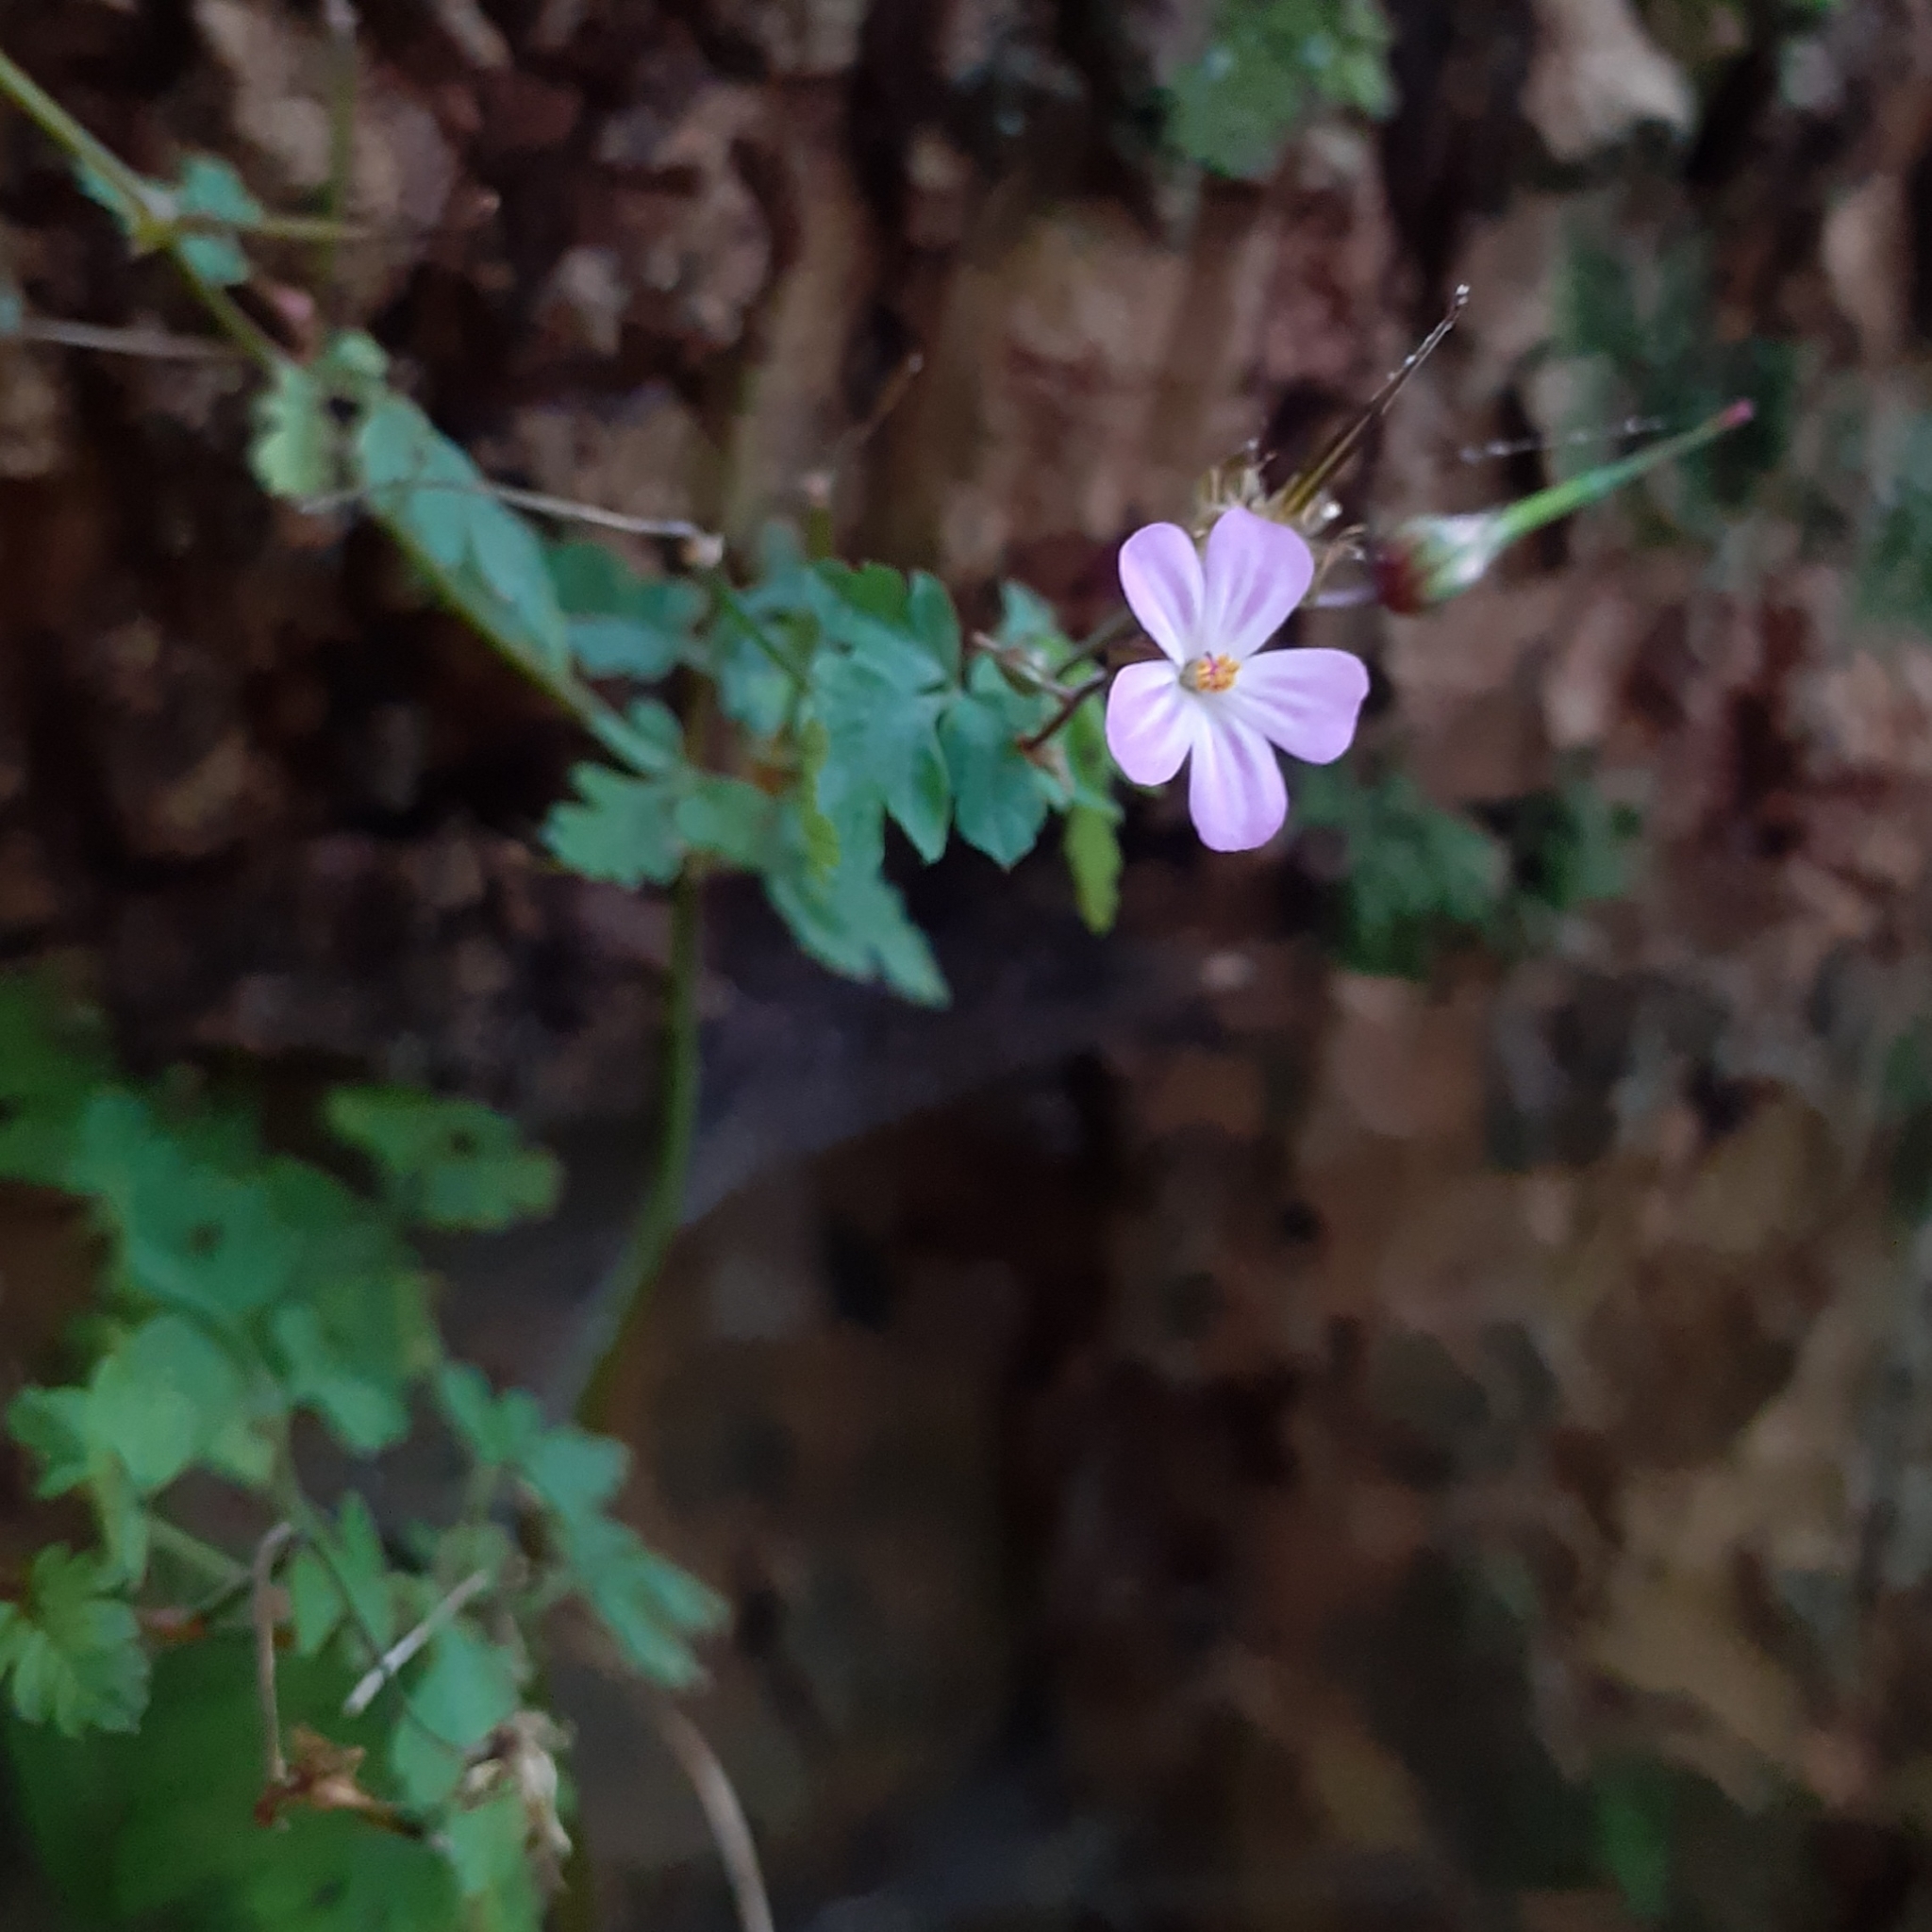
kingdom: Plantae
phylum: Tracheophyta
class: Magnoliopsida
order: Geraniales
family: Geraniaceae
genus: Geranium
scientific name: Geranium robertianum
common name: Herb-robert
